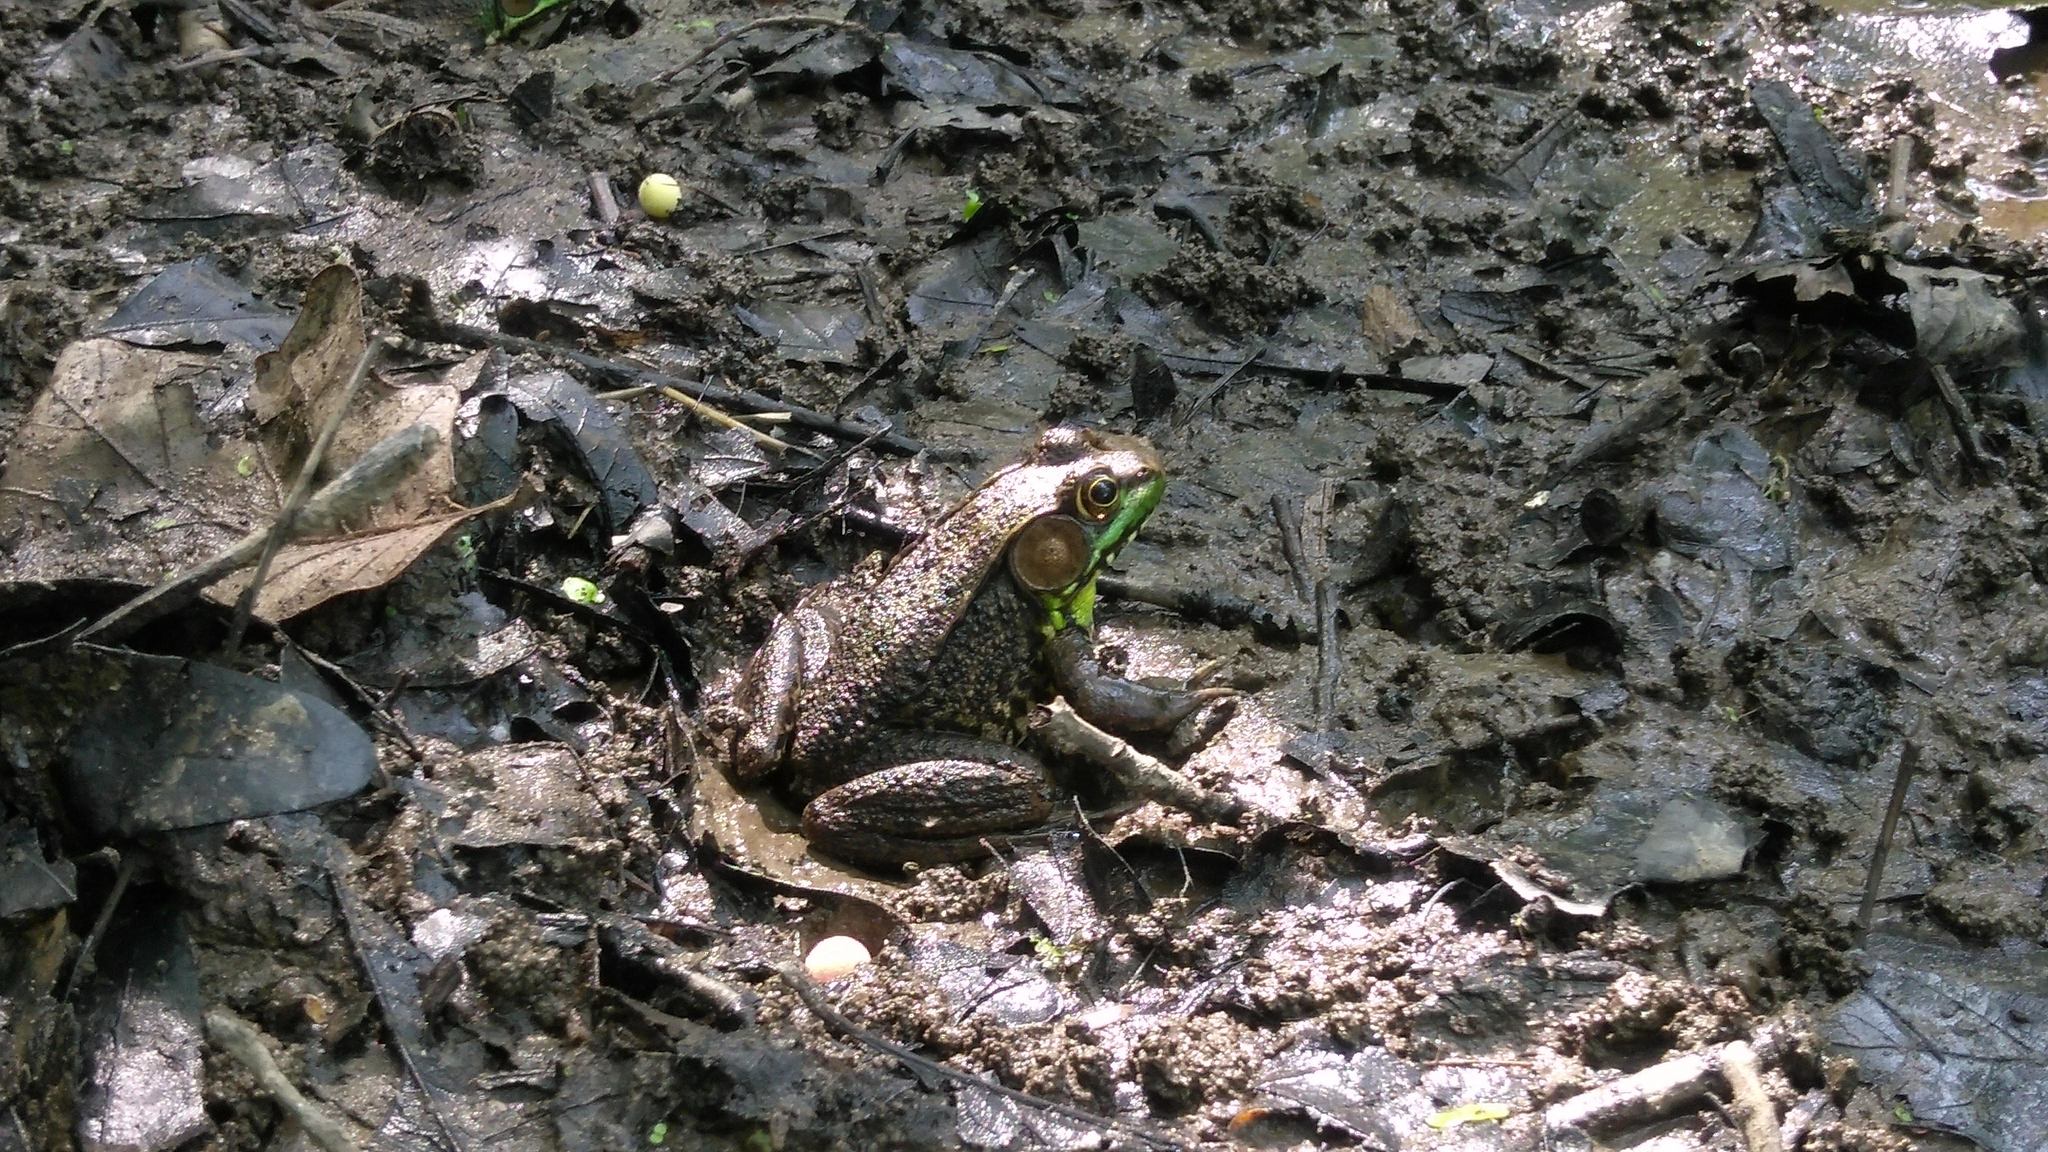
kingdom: Animalia
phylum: Chordata
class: Amphibia
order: Anura
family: Ranidae
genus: Lithobates
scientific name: Lithobates clamitans
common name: Green frog
